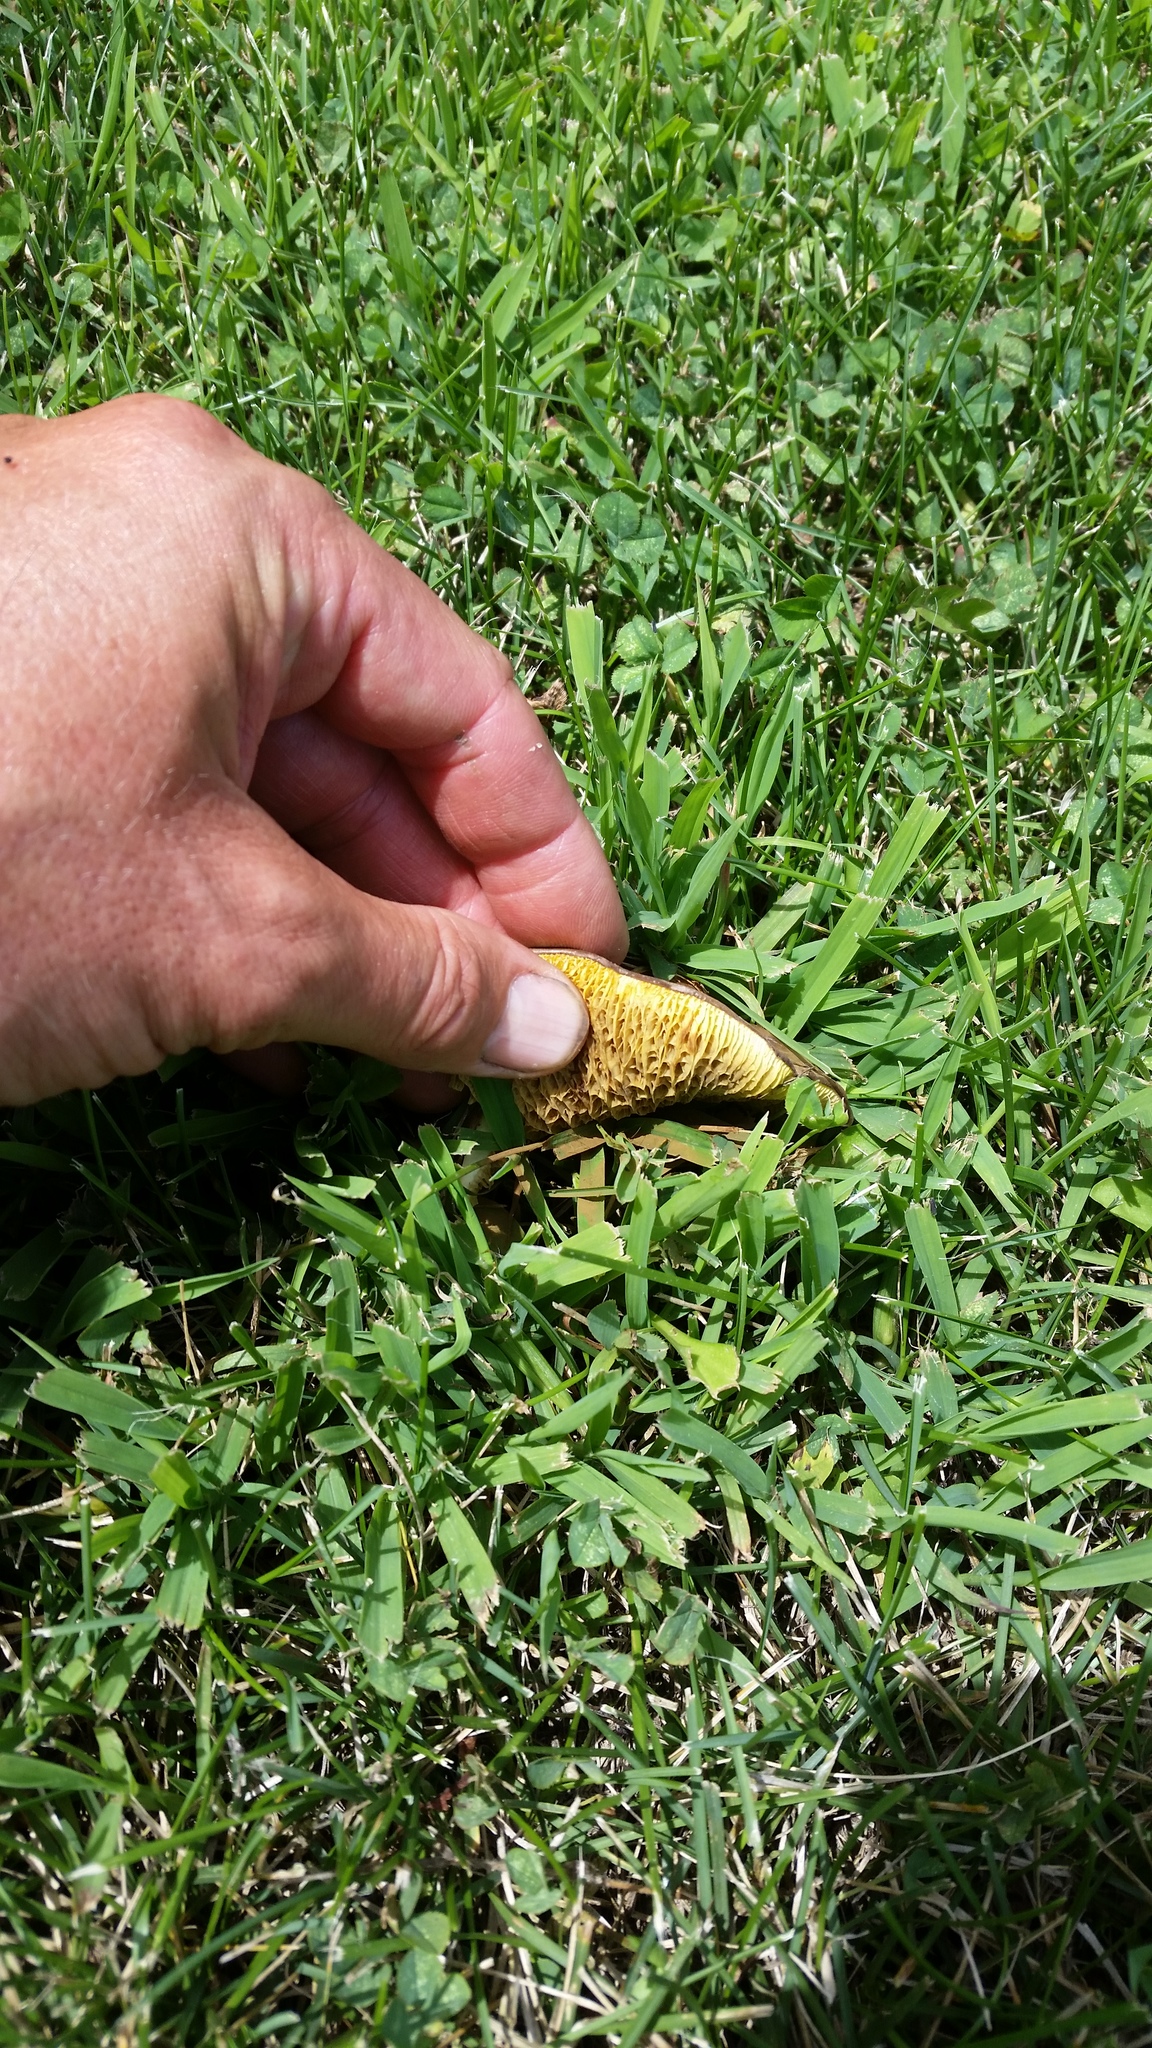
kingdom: Fungi
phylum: Basidiomycota
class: Agaricomycetes
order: Boletales
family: Boletinellaceae
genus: Boletinellus
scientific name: Boletinellus merulioides
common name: Ash tree bolete
